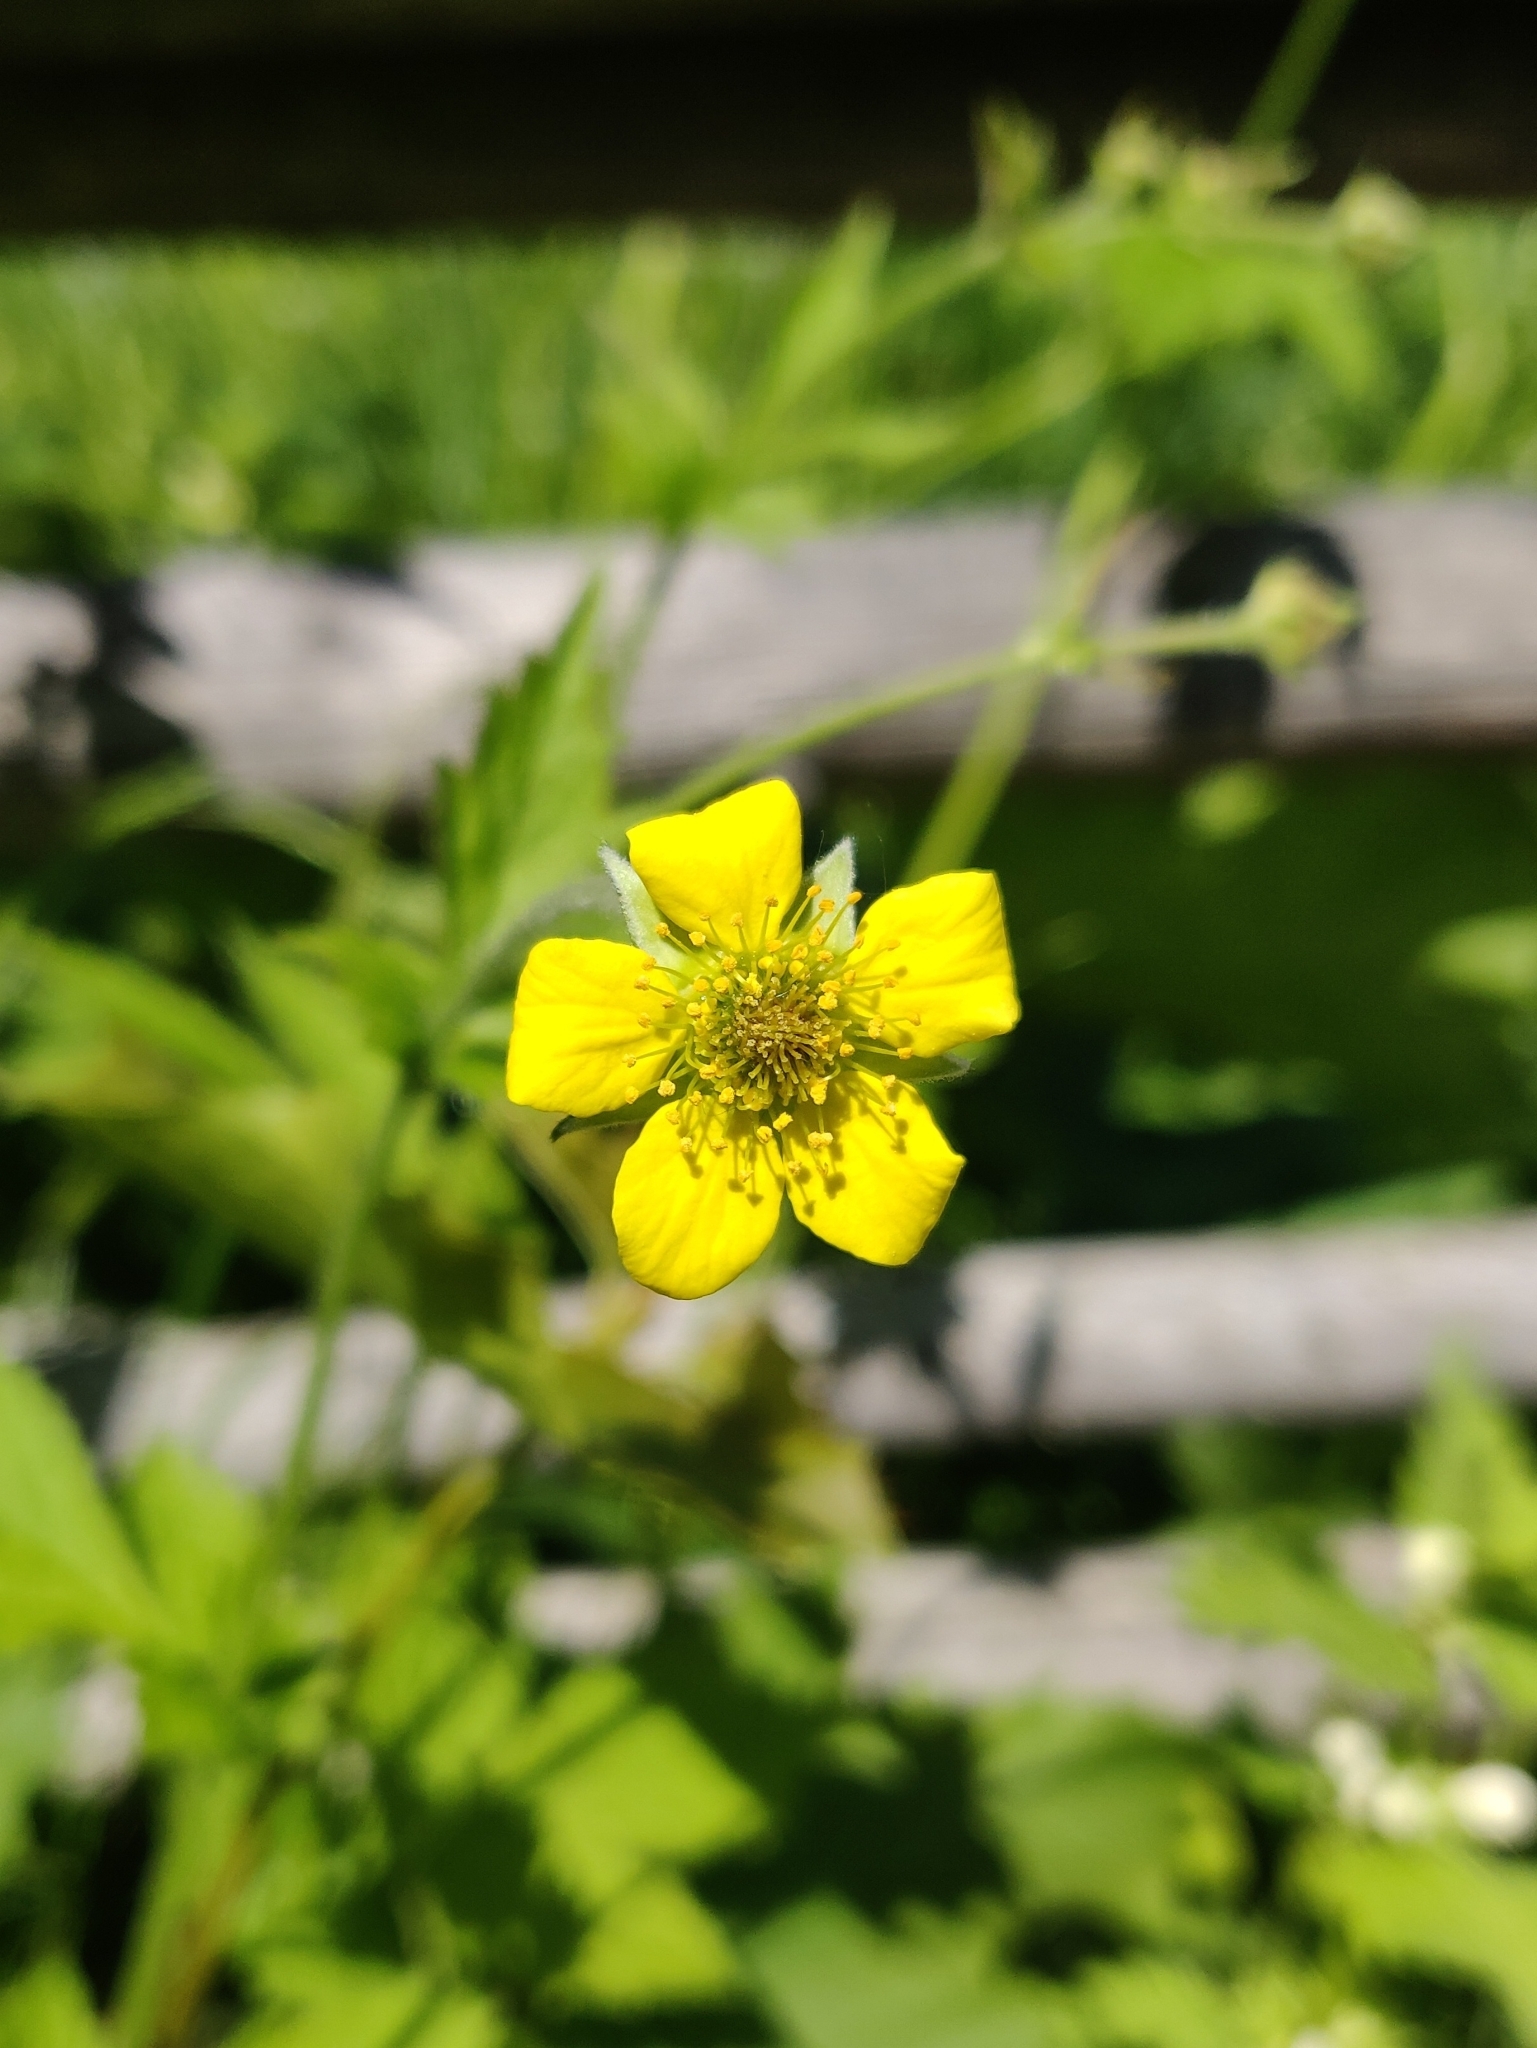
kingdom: Plantae
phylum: Tracheophyta
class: Magnoliopsida
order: Rosales
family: Rosaceae
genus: Geum
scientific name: Geum urbanum
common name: Wood avens
